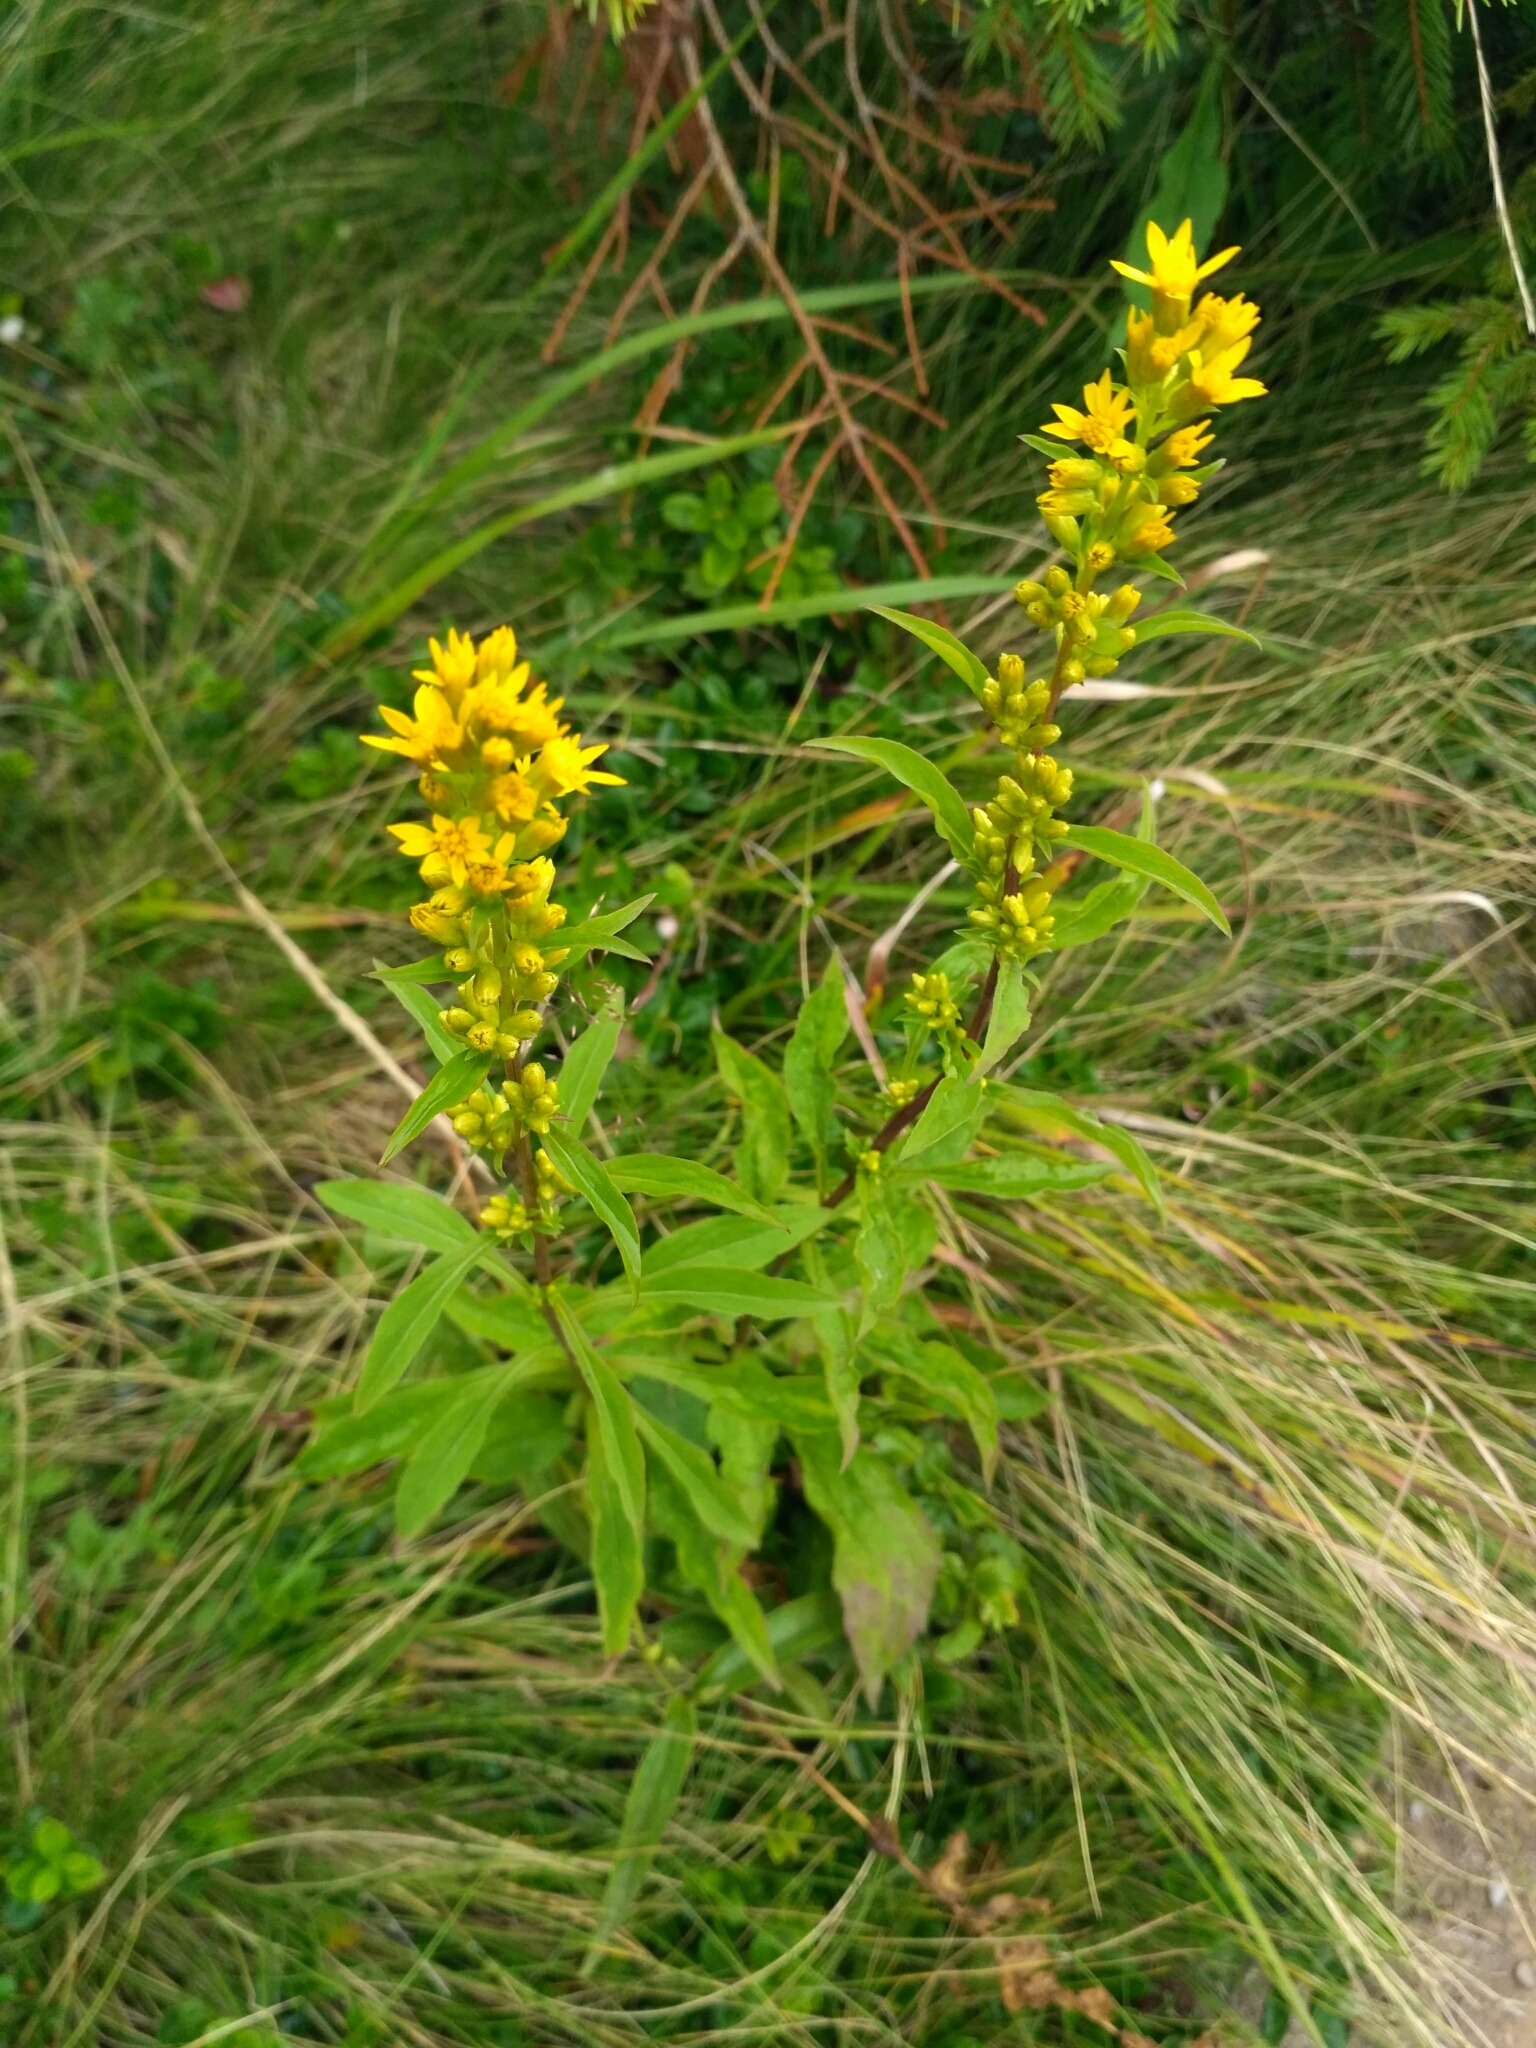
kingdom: Plantae
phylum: Tracheophyta
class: Magnoliopsida
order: Asterales
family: Asteraceae
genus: Solidago
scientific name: Solidago virgaurea
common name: Goldenrod
